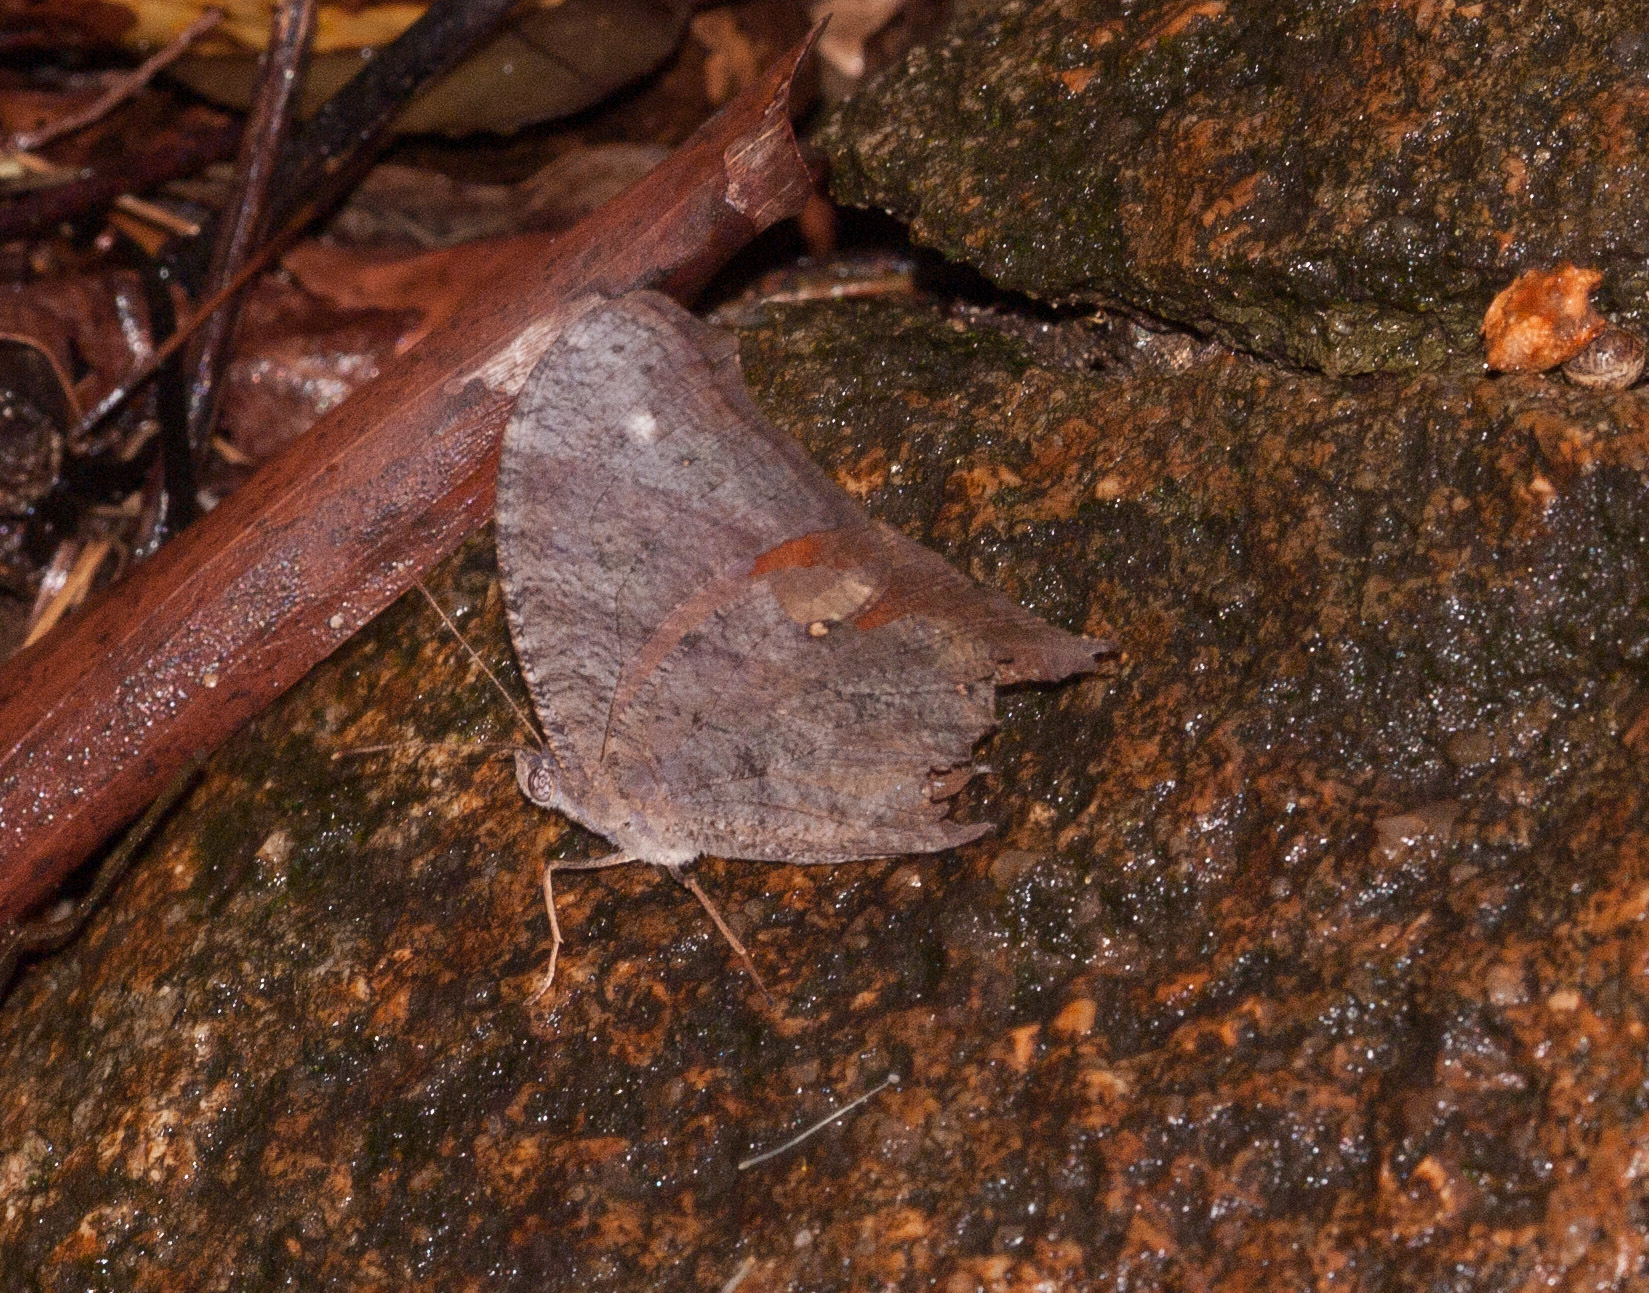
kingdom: Animalia
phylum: Arthropoda
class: Insecta
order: Lepidoptera
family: Nymphalidae
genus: Melanitis
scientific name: Melanitis leda
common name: Twilight brown
